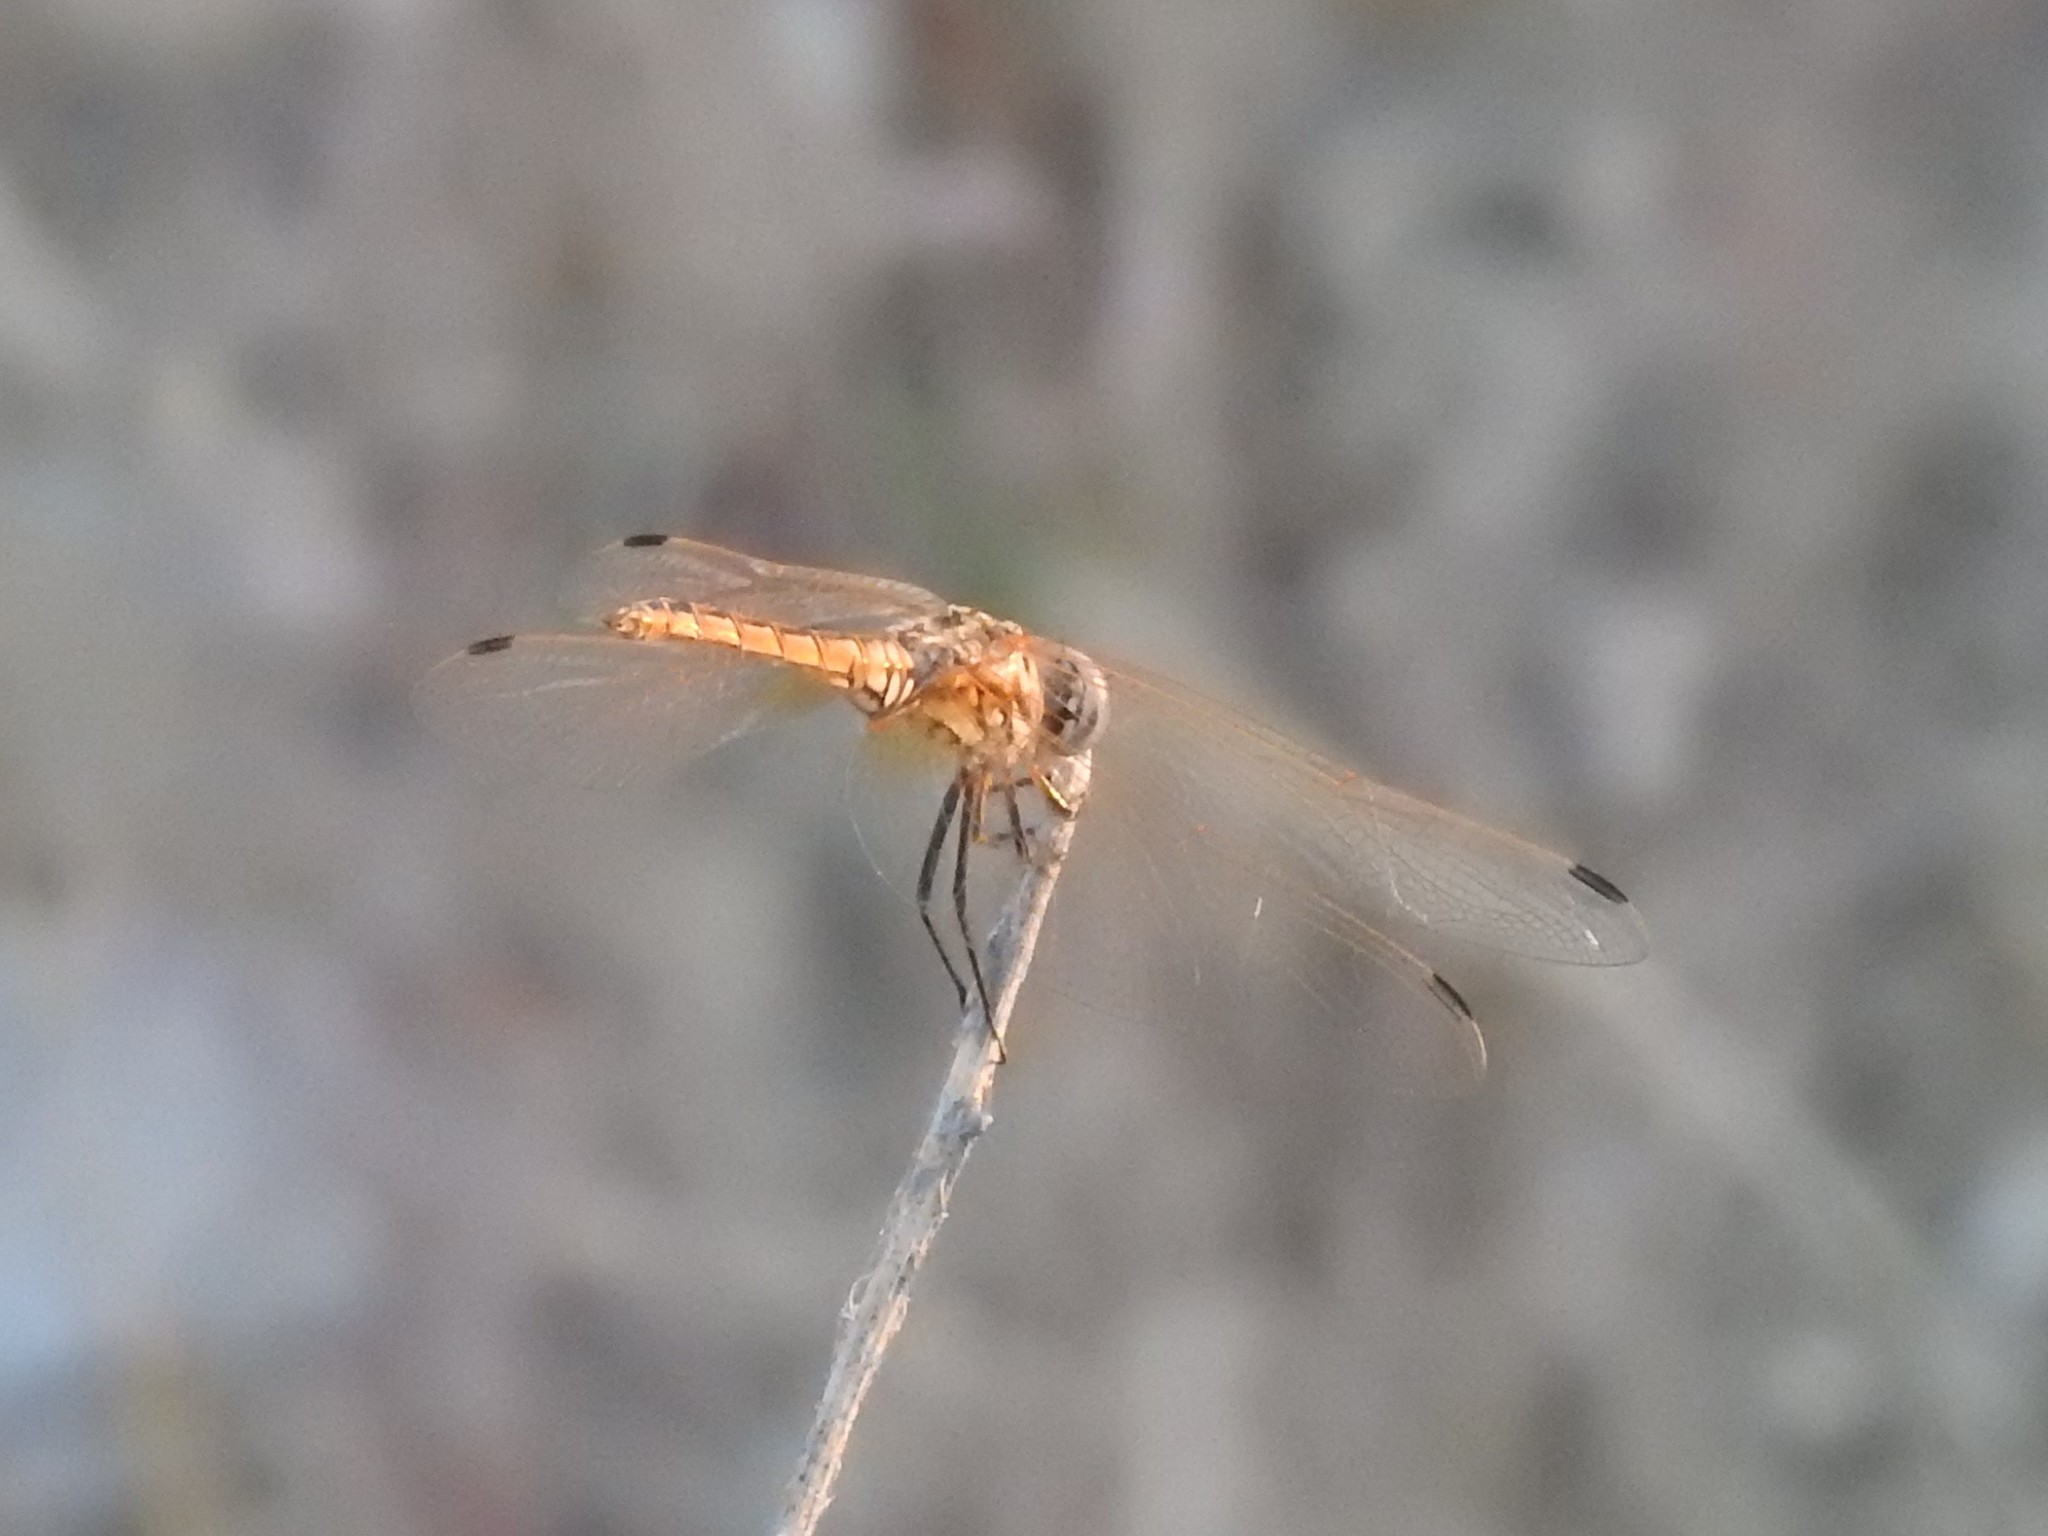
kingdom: Animalia
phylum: Arthropoda
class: Insecta
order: Odonata
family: Libellulidae
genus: Trithemis
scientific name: Trithemis annulata
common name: Violet dropwing
